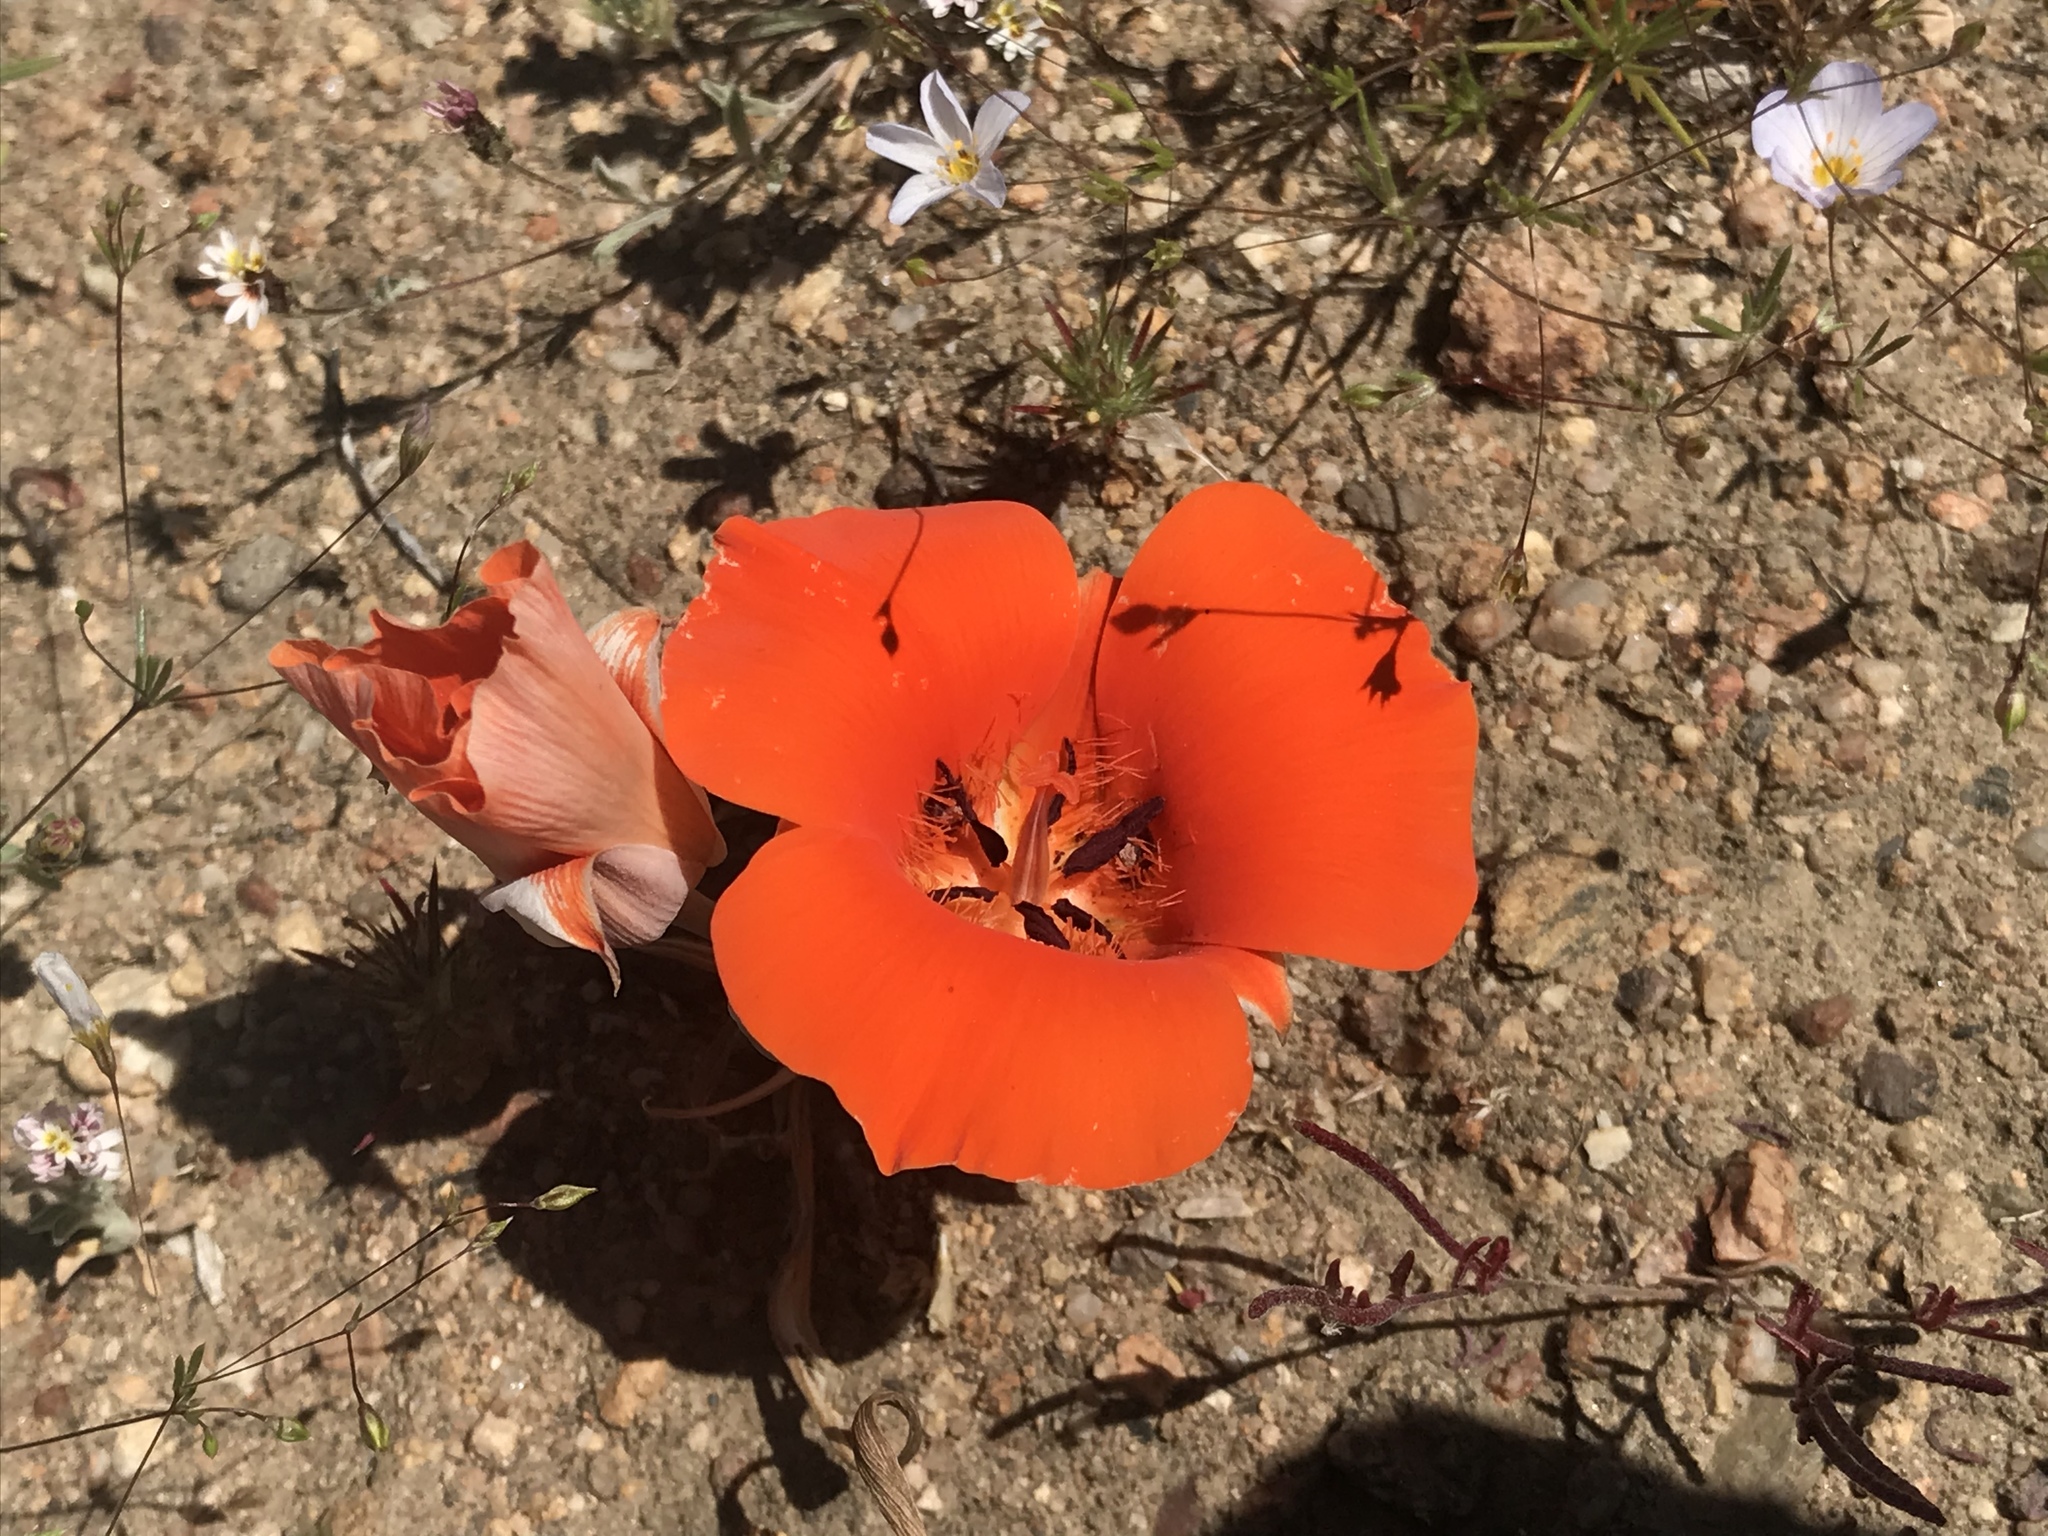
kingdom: Plantae
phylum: Tracheophyta
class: Liliopsida
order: Liliales
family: Liliaceae
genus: Calochortus
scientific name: Calochortus kennedyi
